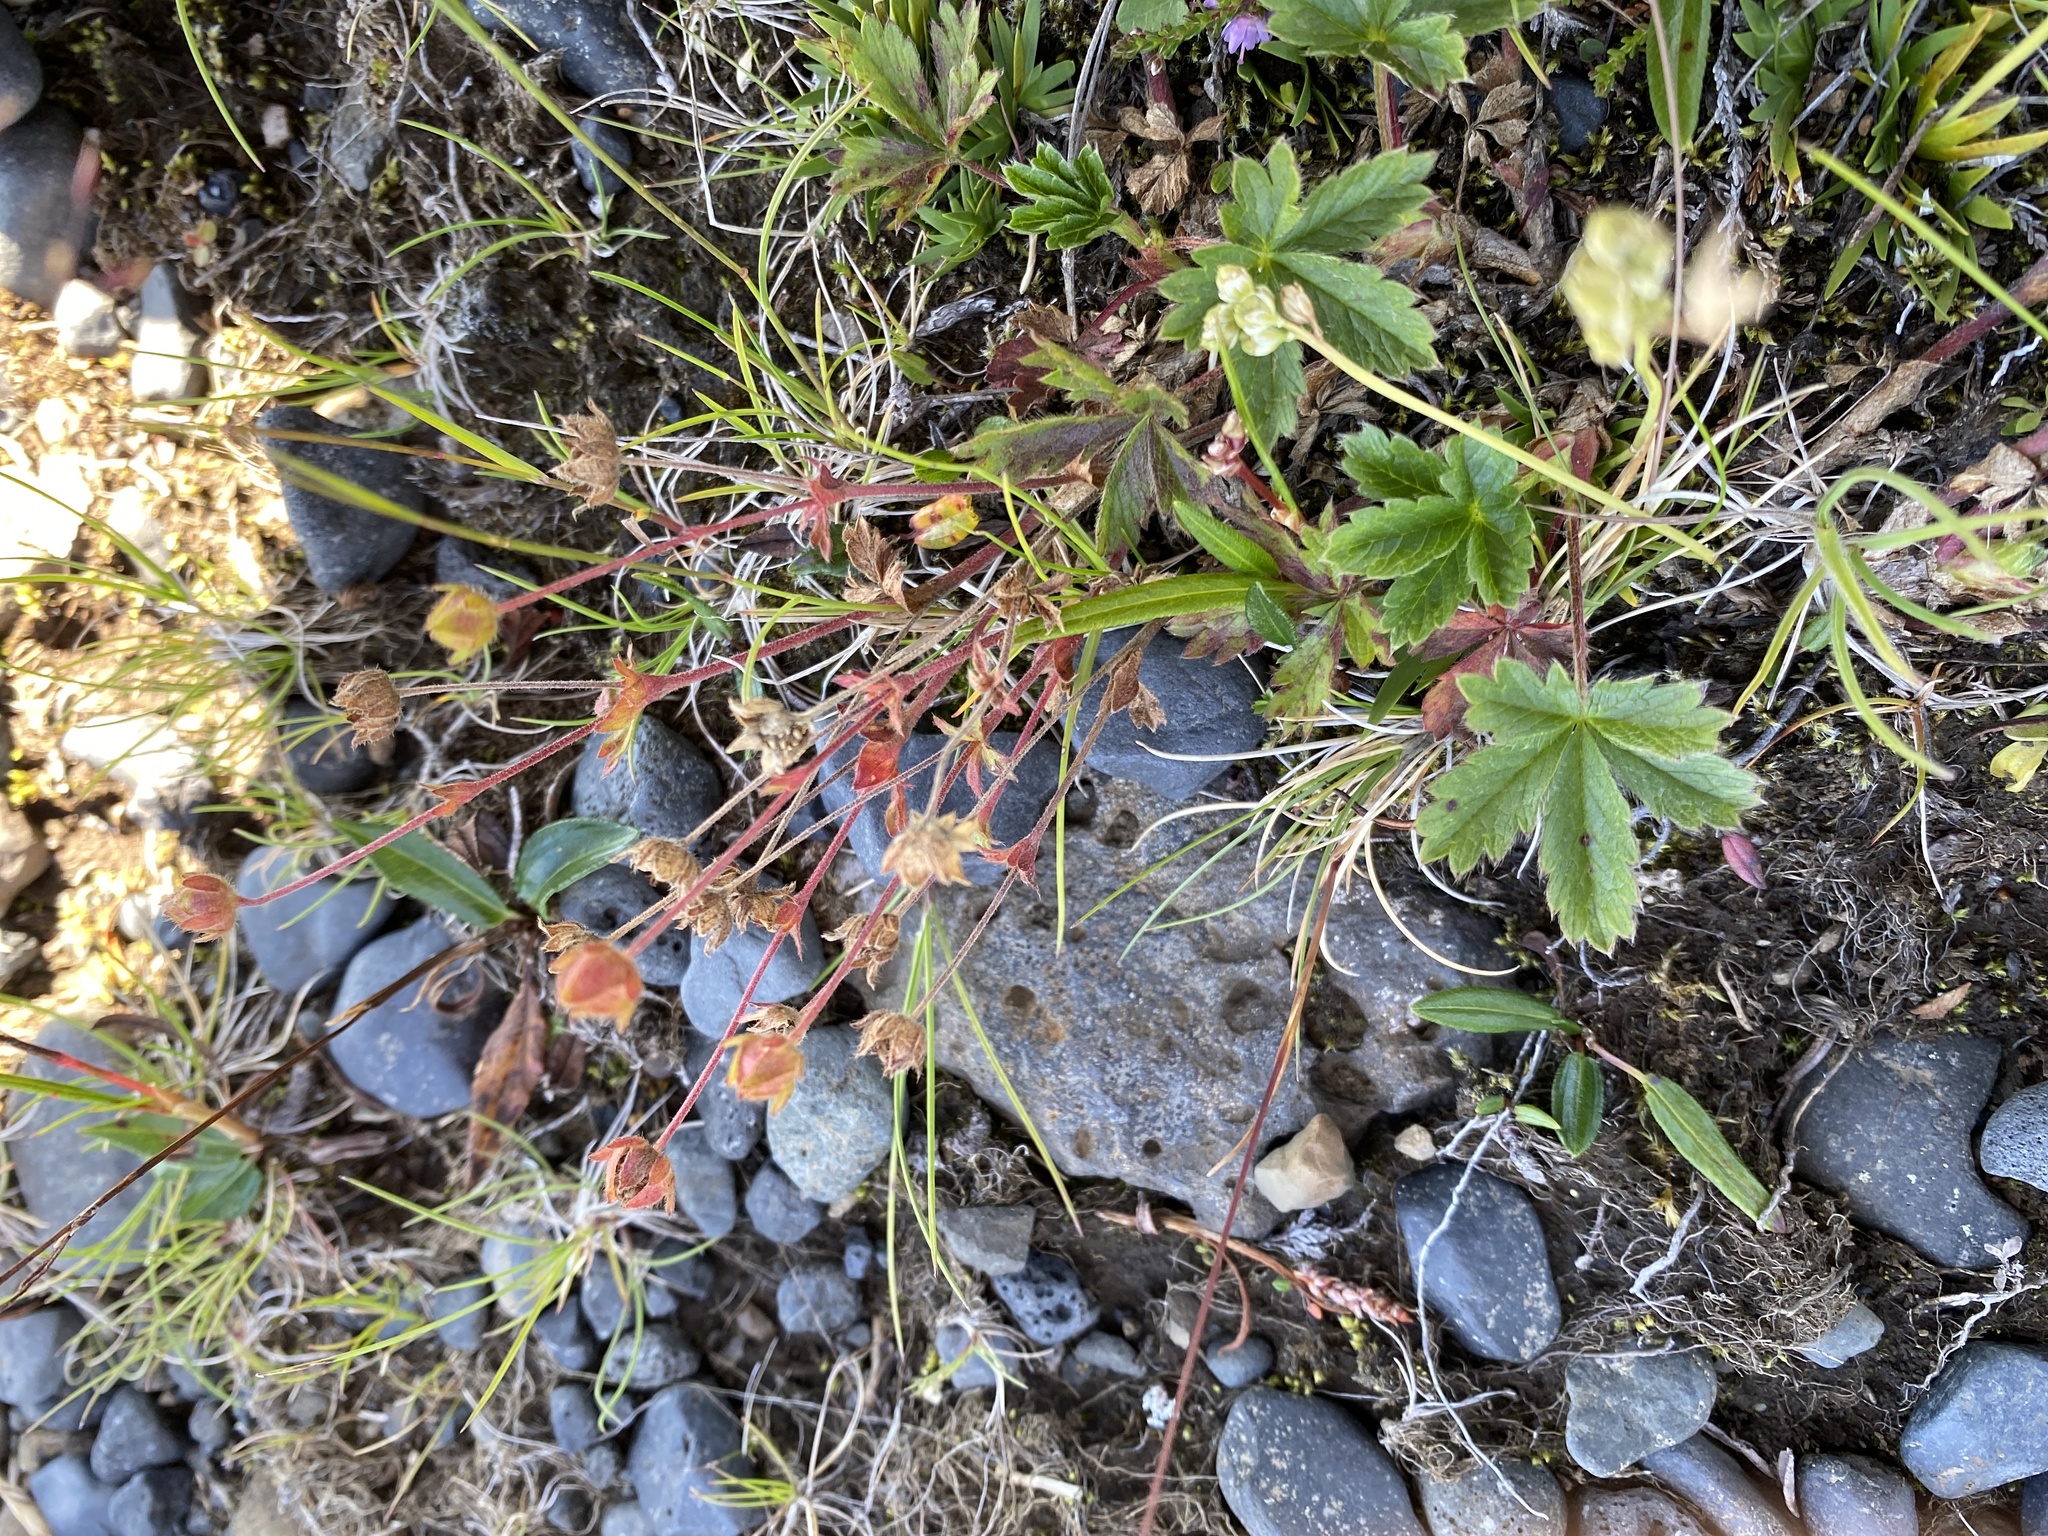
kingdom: Plantae
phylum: Tracheophyta
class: Magnoliopsida
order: Rosales
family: Rosaceae
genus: Potentilla
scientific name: Potentilla crantzii
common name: Alpine cinquefoil
